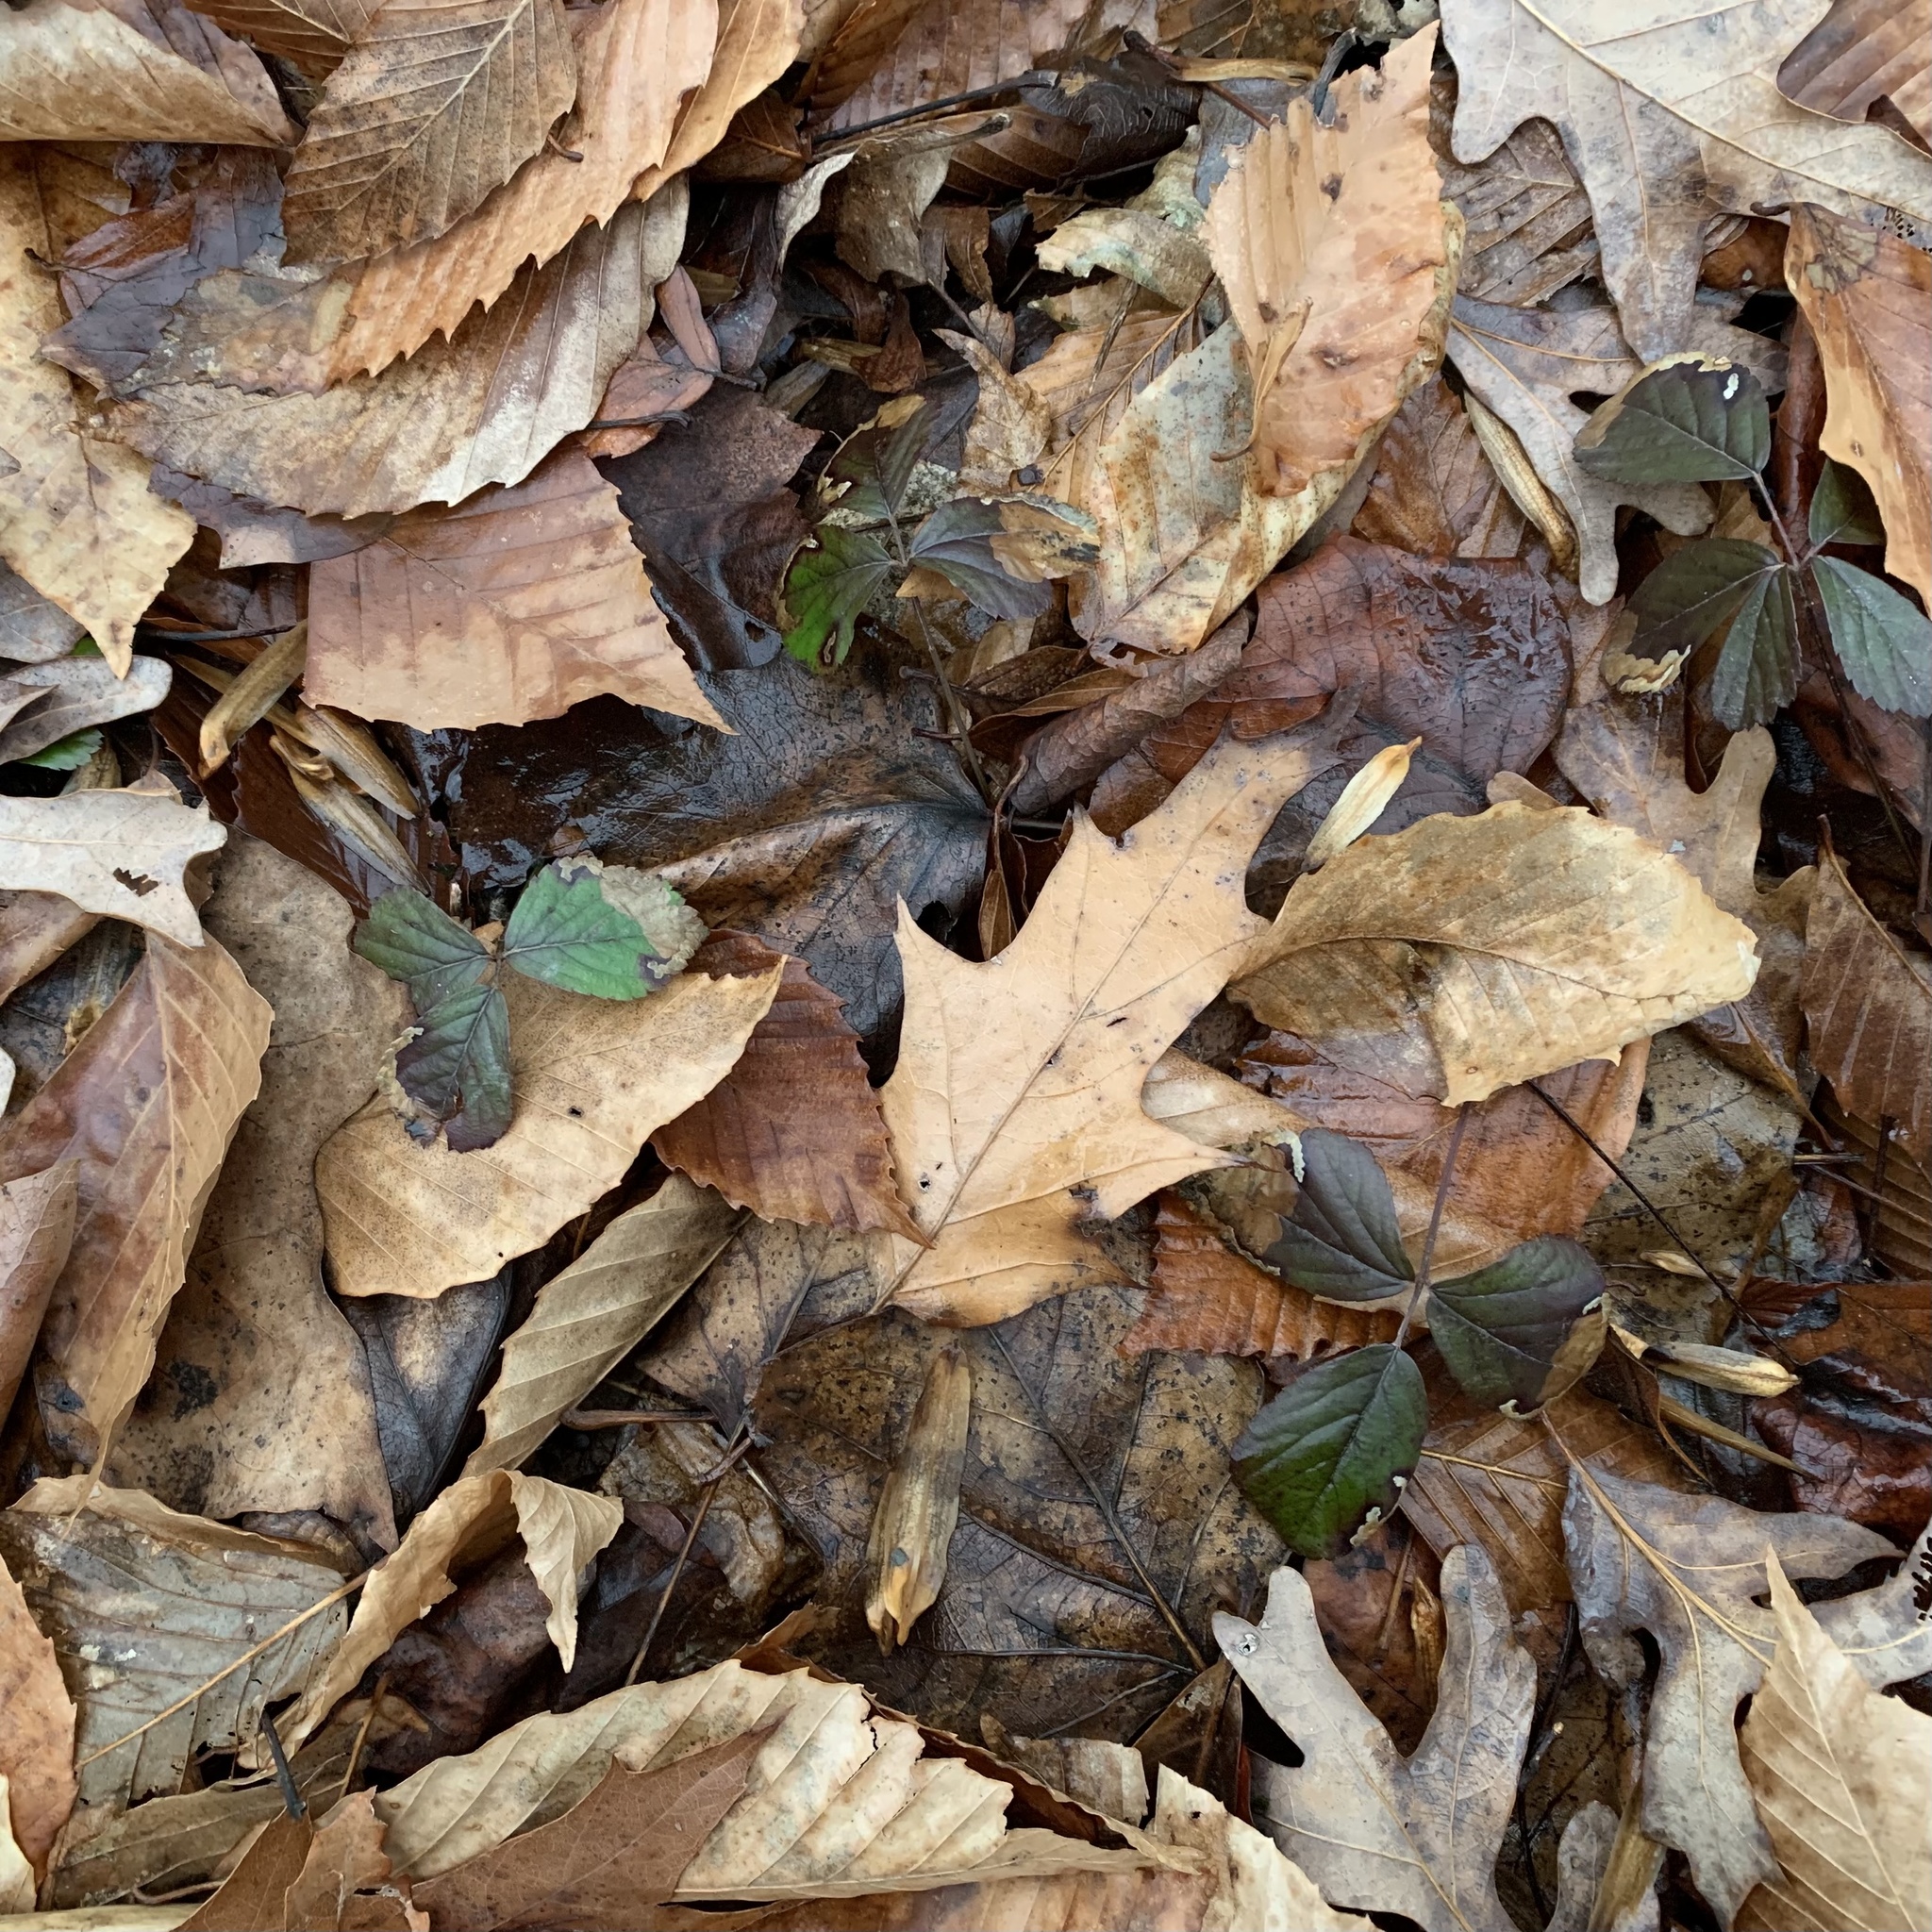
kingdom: Animalia
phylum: Arthropoda
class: Insecta
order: Hymenoptera
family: Tenthredinidae
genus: Metallus
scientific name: Metallus
